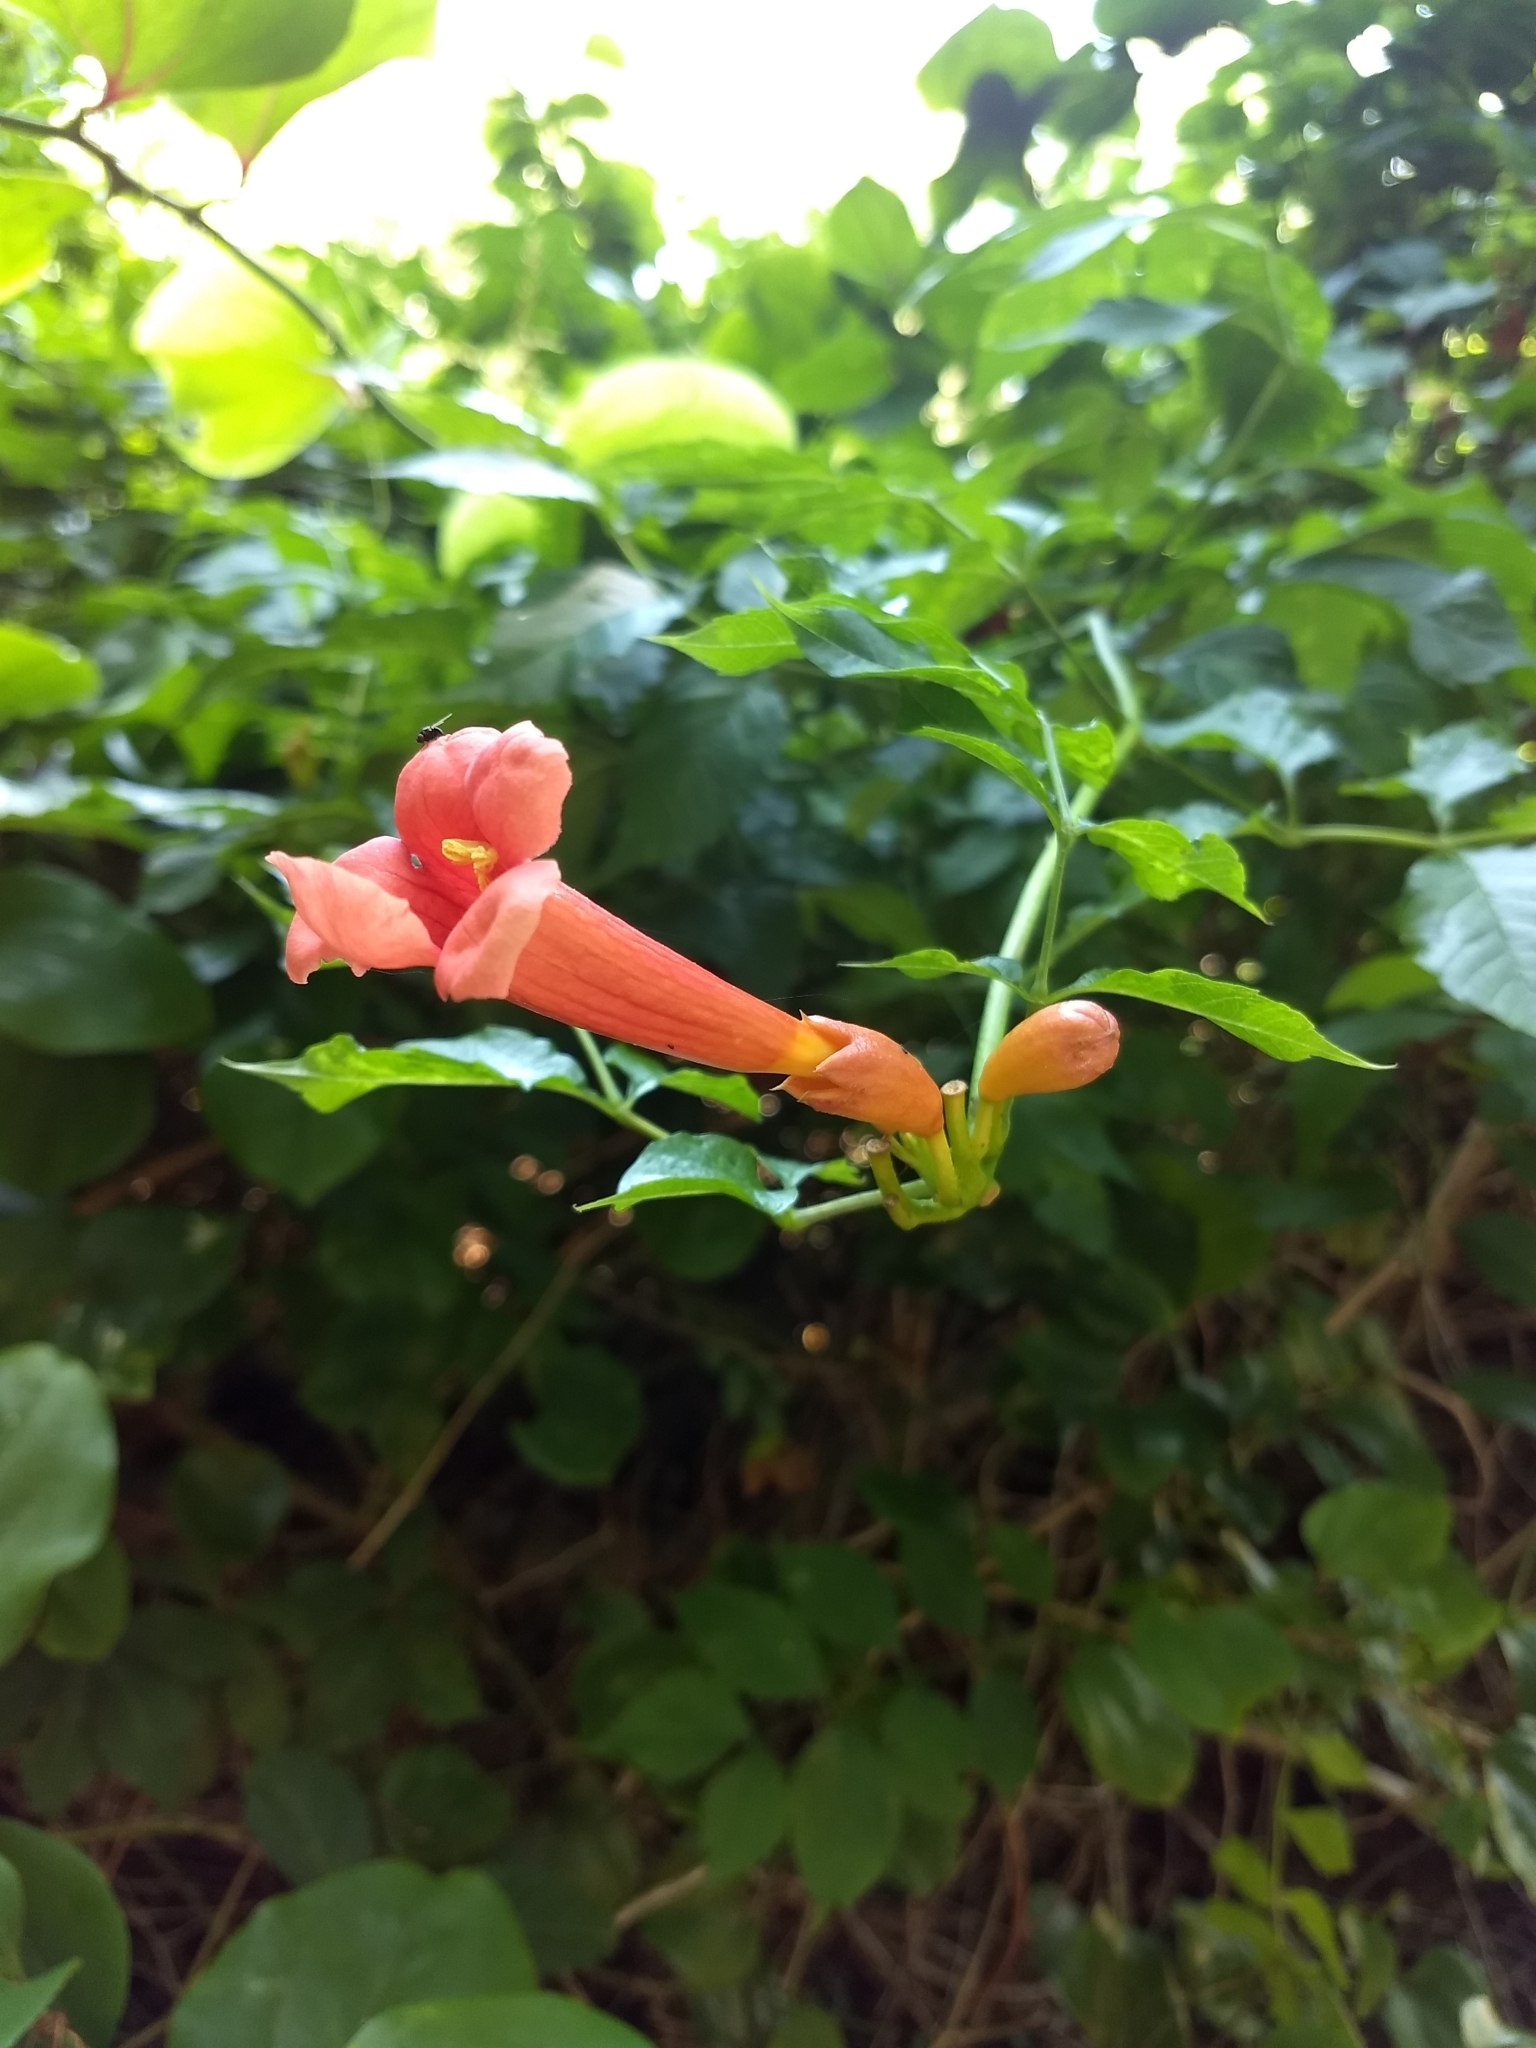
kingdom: Plantae
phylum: Tracheophyta
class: Magnoliopsida
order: Lamiales
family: Bignoniaceae
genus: Campsis
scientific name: Campsis radicans
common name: Trumpet-creeper
